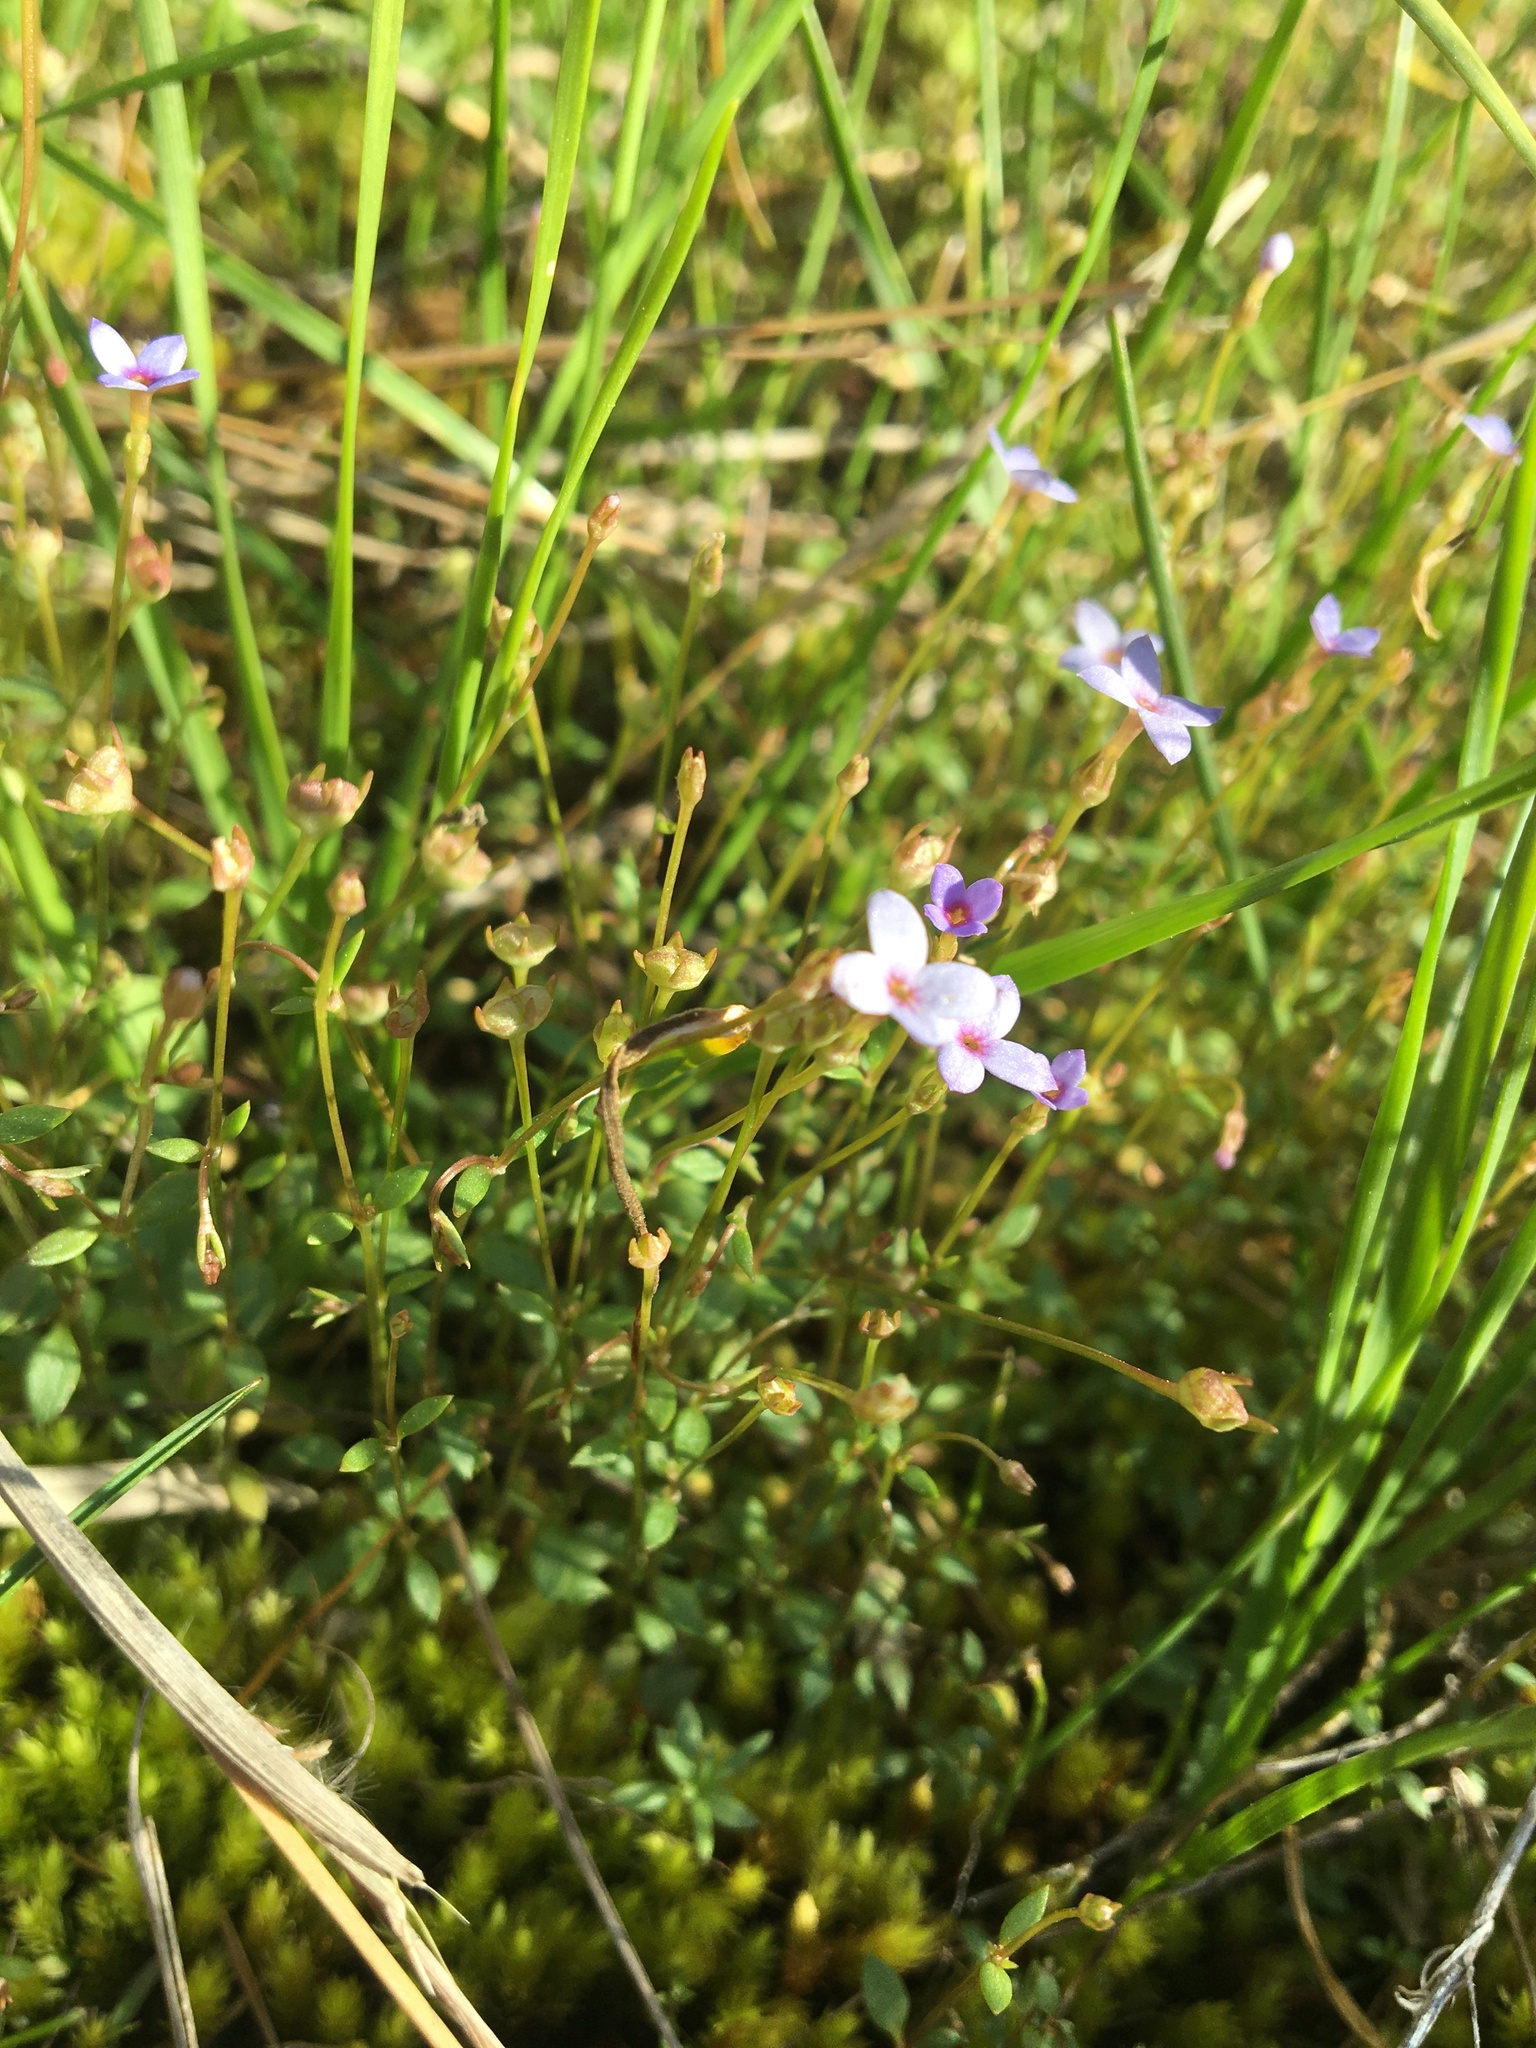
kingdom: Plantae
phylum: Tracheophyta
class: Magnoliopsida
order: Gentianales
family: Rubiaceae
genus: Houstonia
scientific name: Houstonia pusilla
